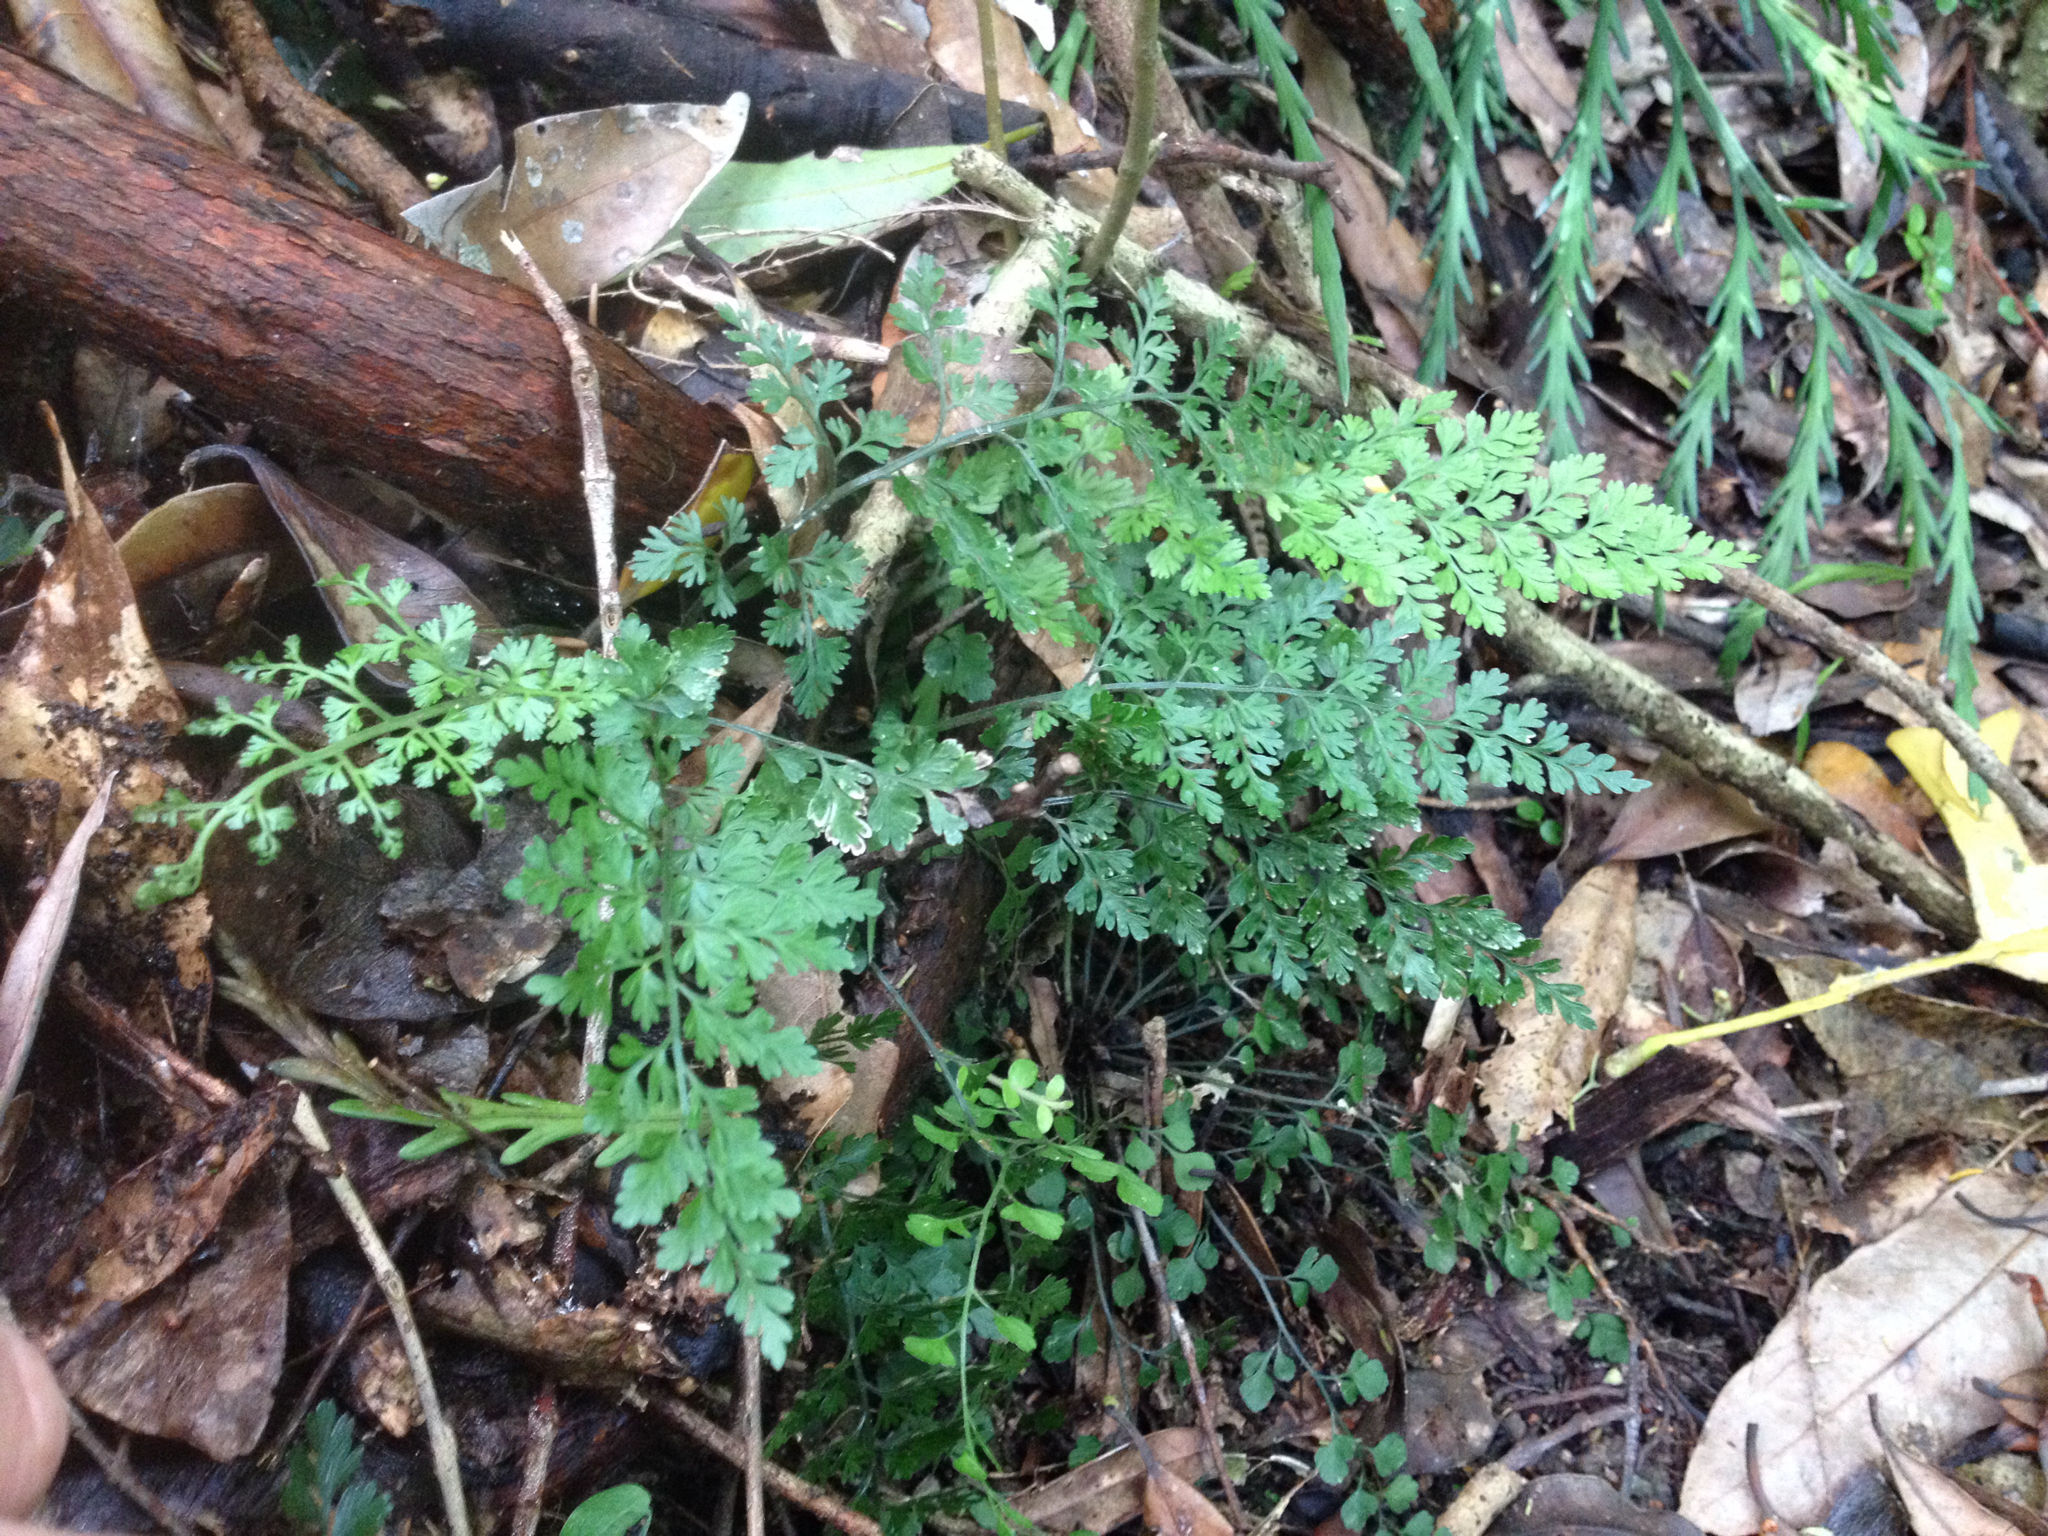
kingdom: Plantae
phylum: Tracheophyta
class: Polypodiopsida
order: Polypodiales
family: Aspleniaceae
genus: Asplenium
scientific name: Asplenium hookerianum
